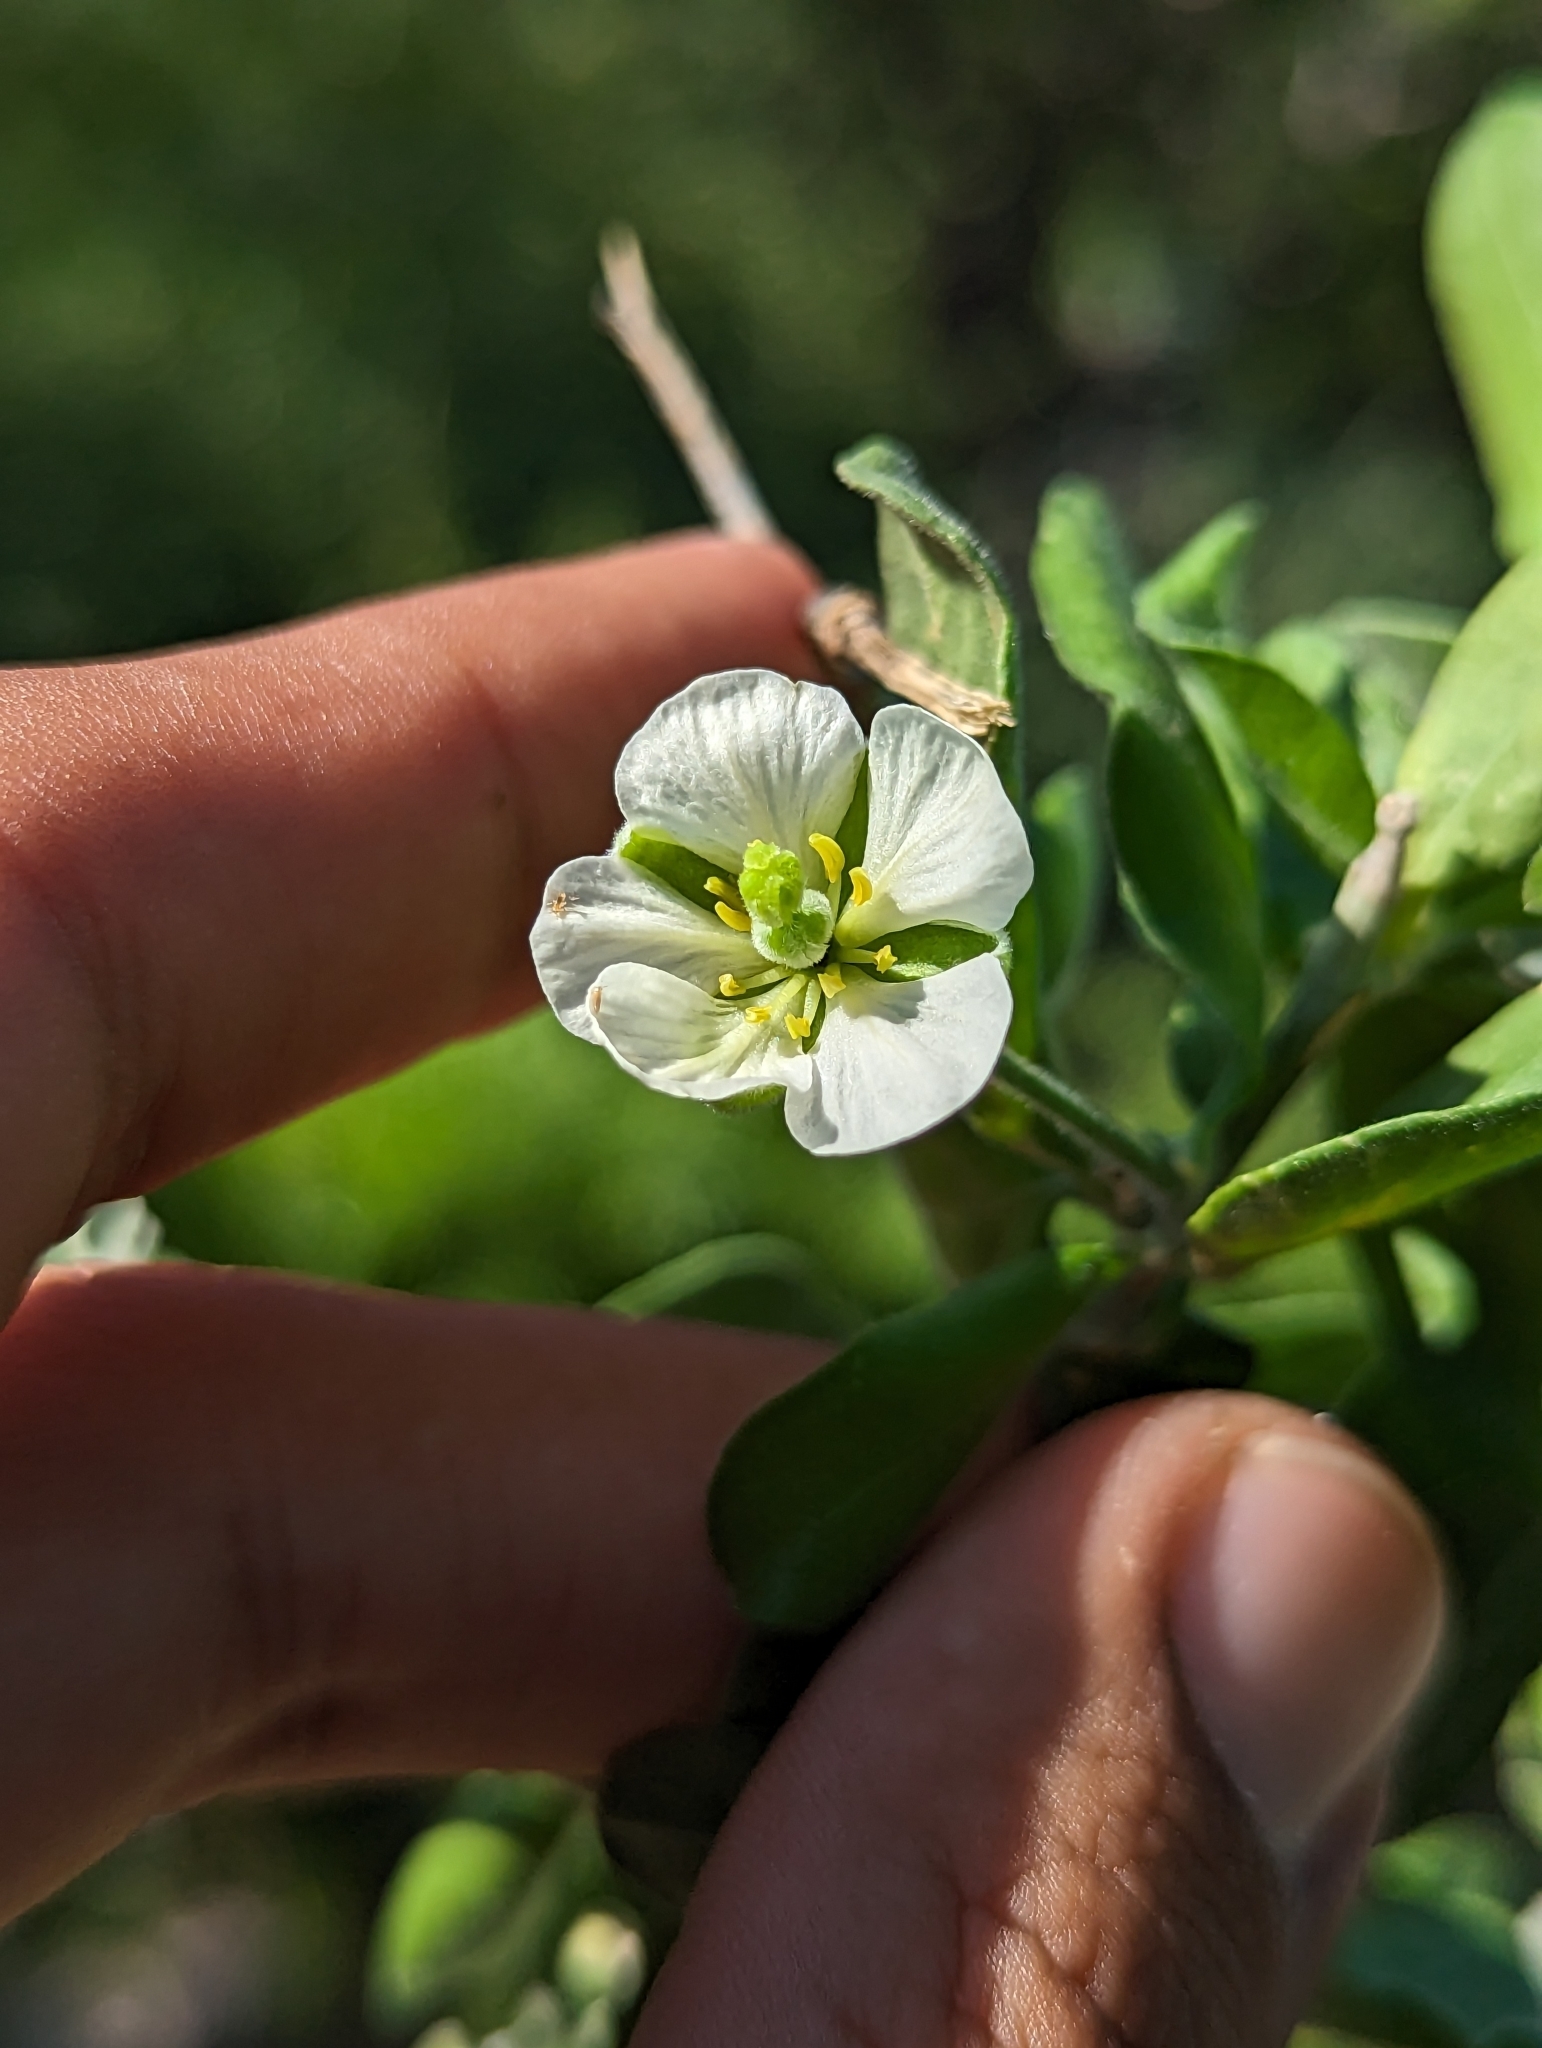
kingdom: Plantae
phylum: Tracheophyta
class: Magnoliopsida
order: Zygophyllales
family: Zygophyllaceae
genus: Viscainoa
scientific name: Viscainoa geniculata
